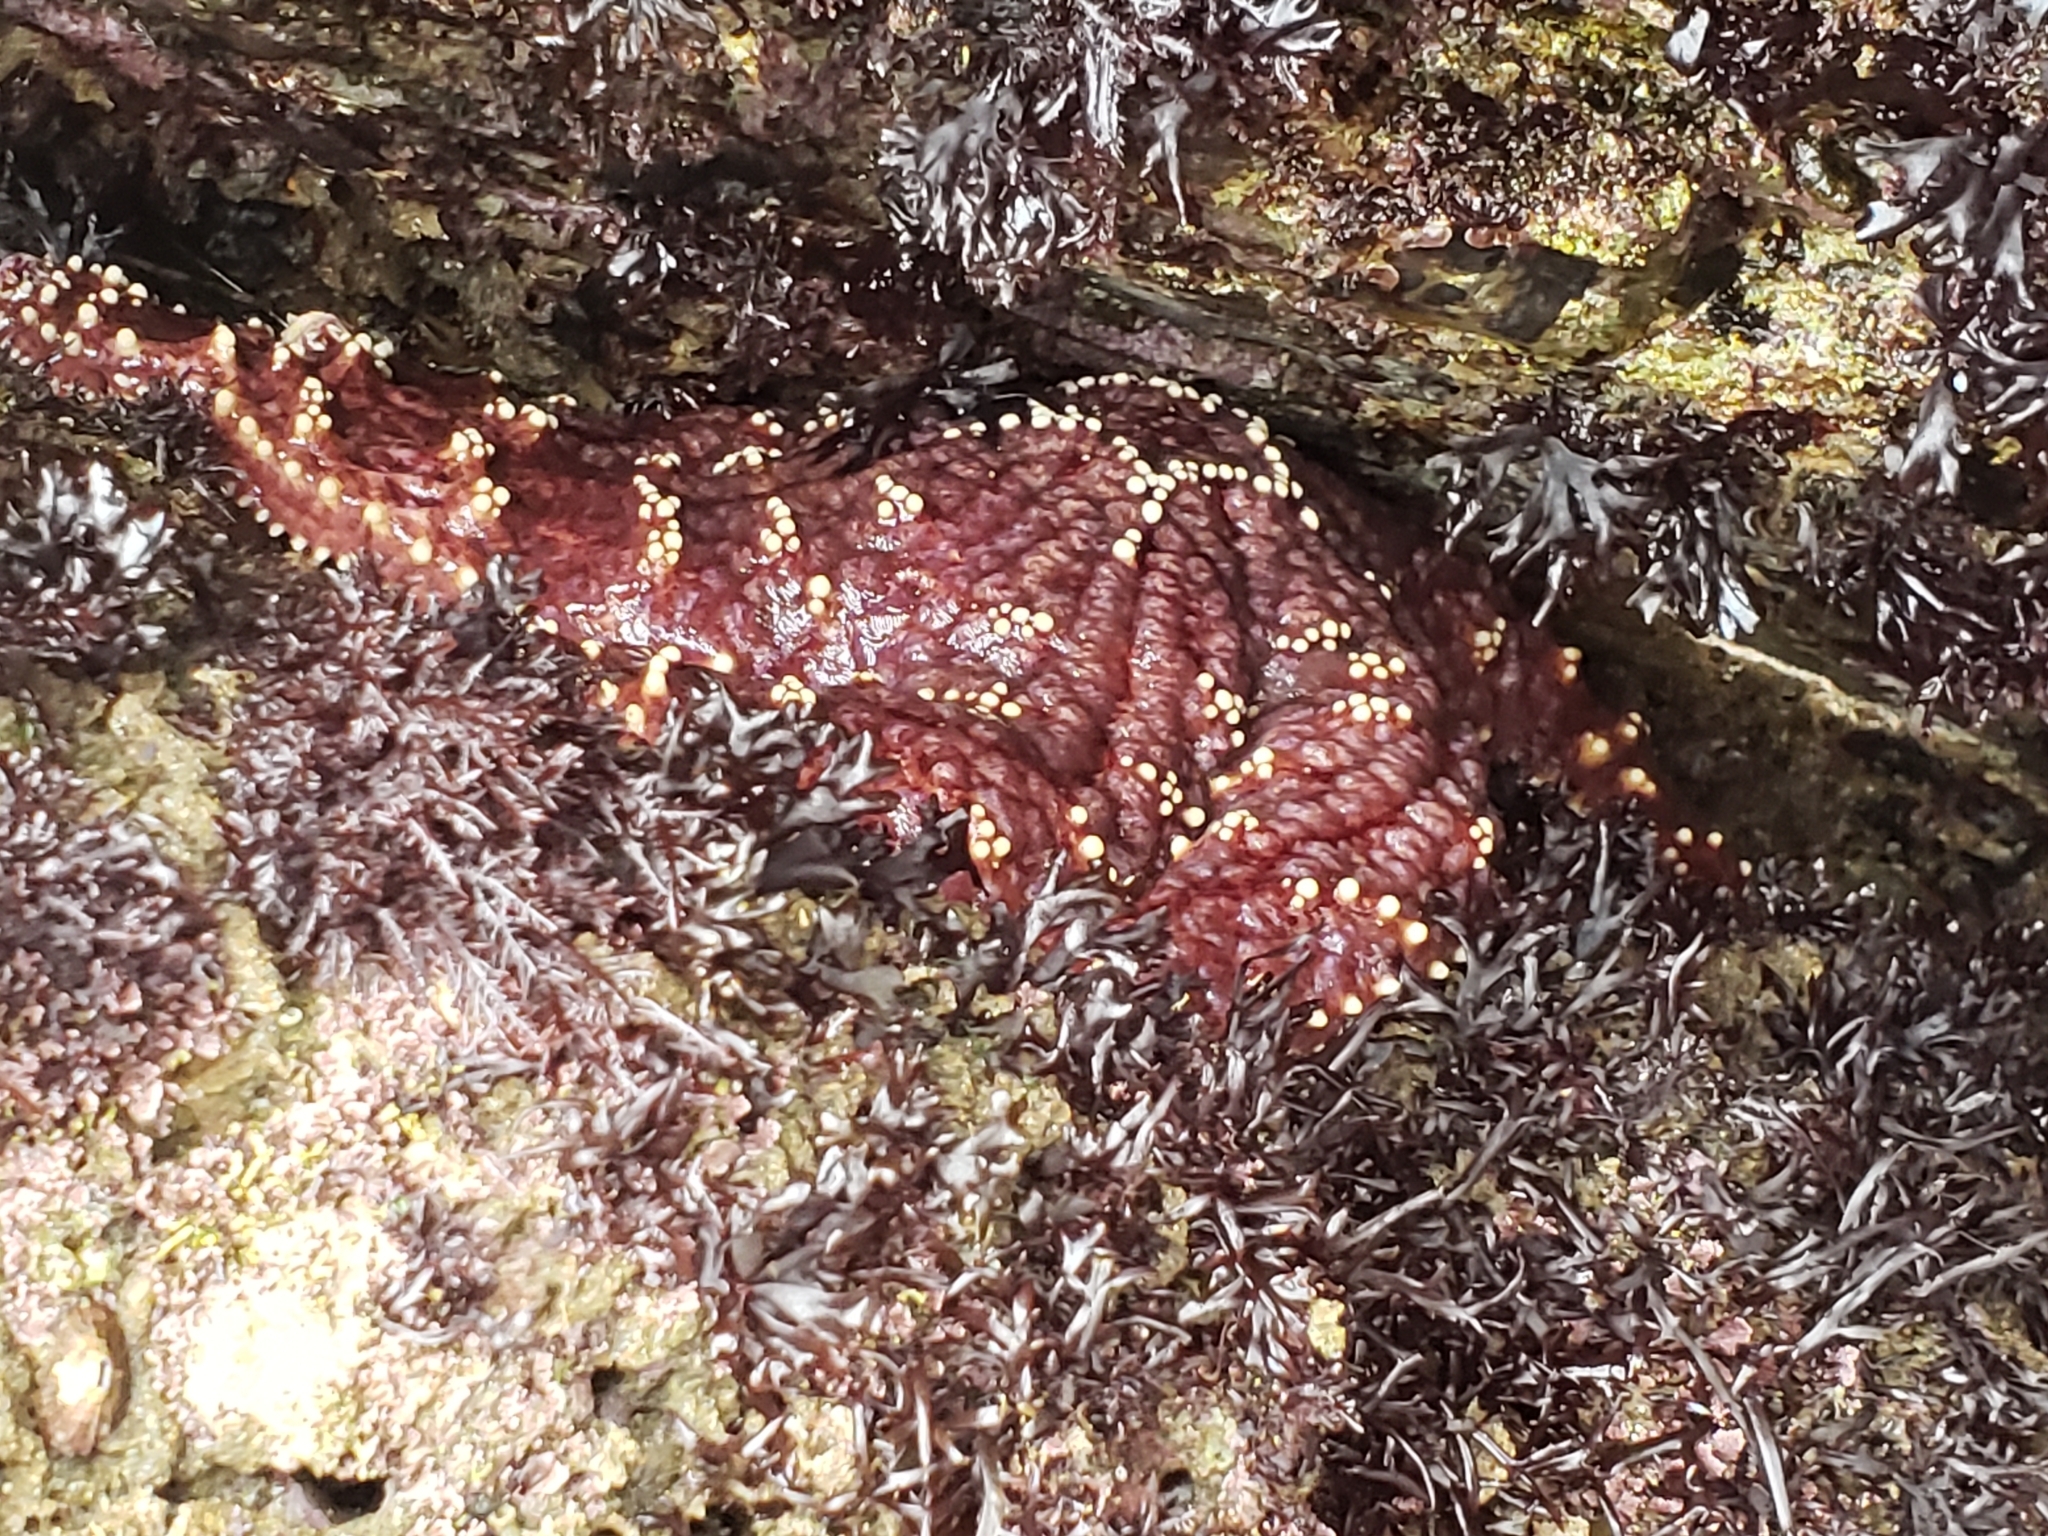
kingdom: Animalia
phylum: Echinodermata
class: Asteroidea
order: Forcipulatida
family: Asteriidae
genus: Pisaster
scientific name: Pisaster ochraceus
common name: Ochre stars
